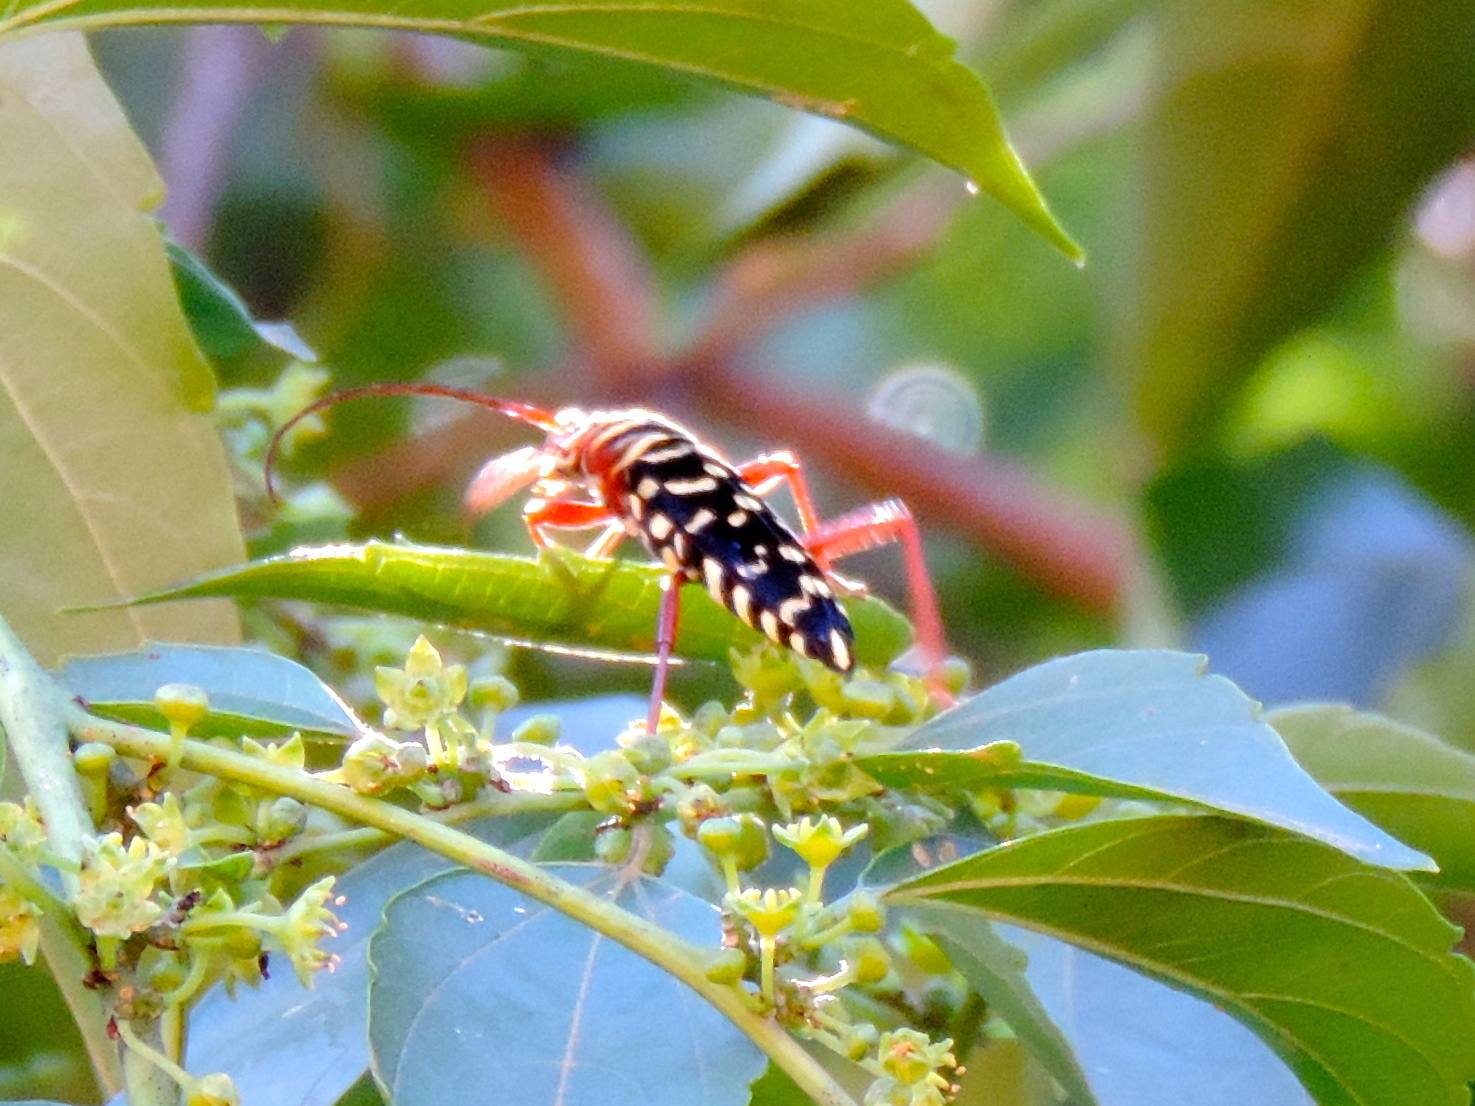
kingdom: Animalia
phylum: Arthropoda
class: Insecta
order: Coleoptera
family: Cerambycidae
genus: Placosternus
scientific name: Placosternus erythropus
